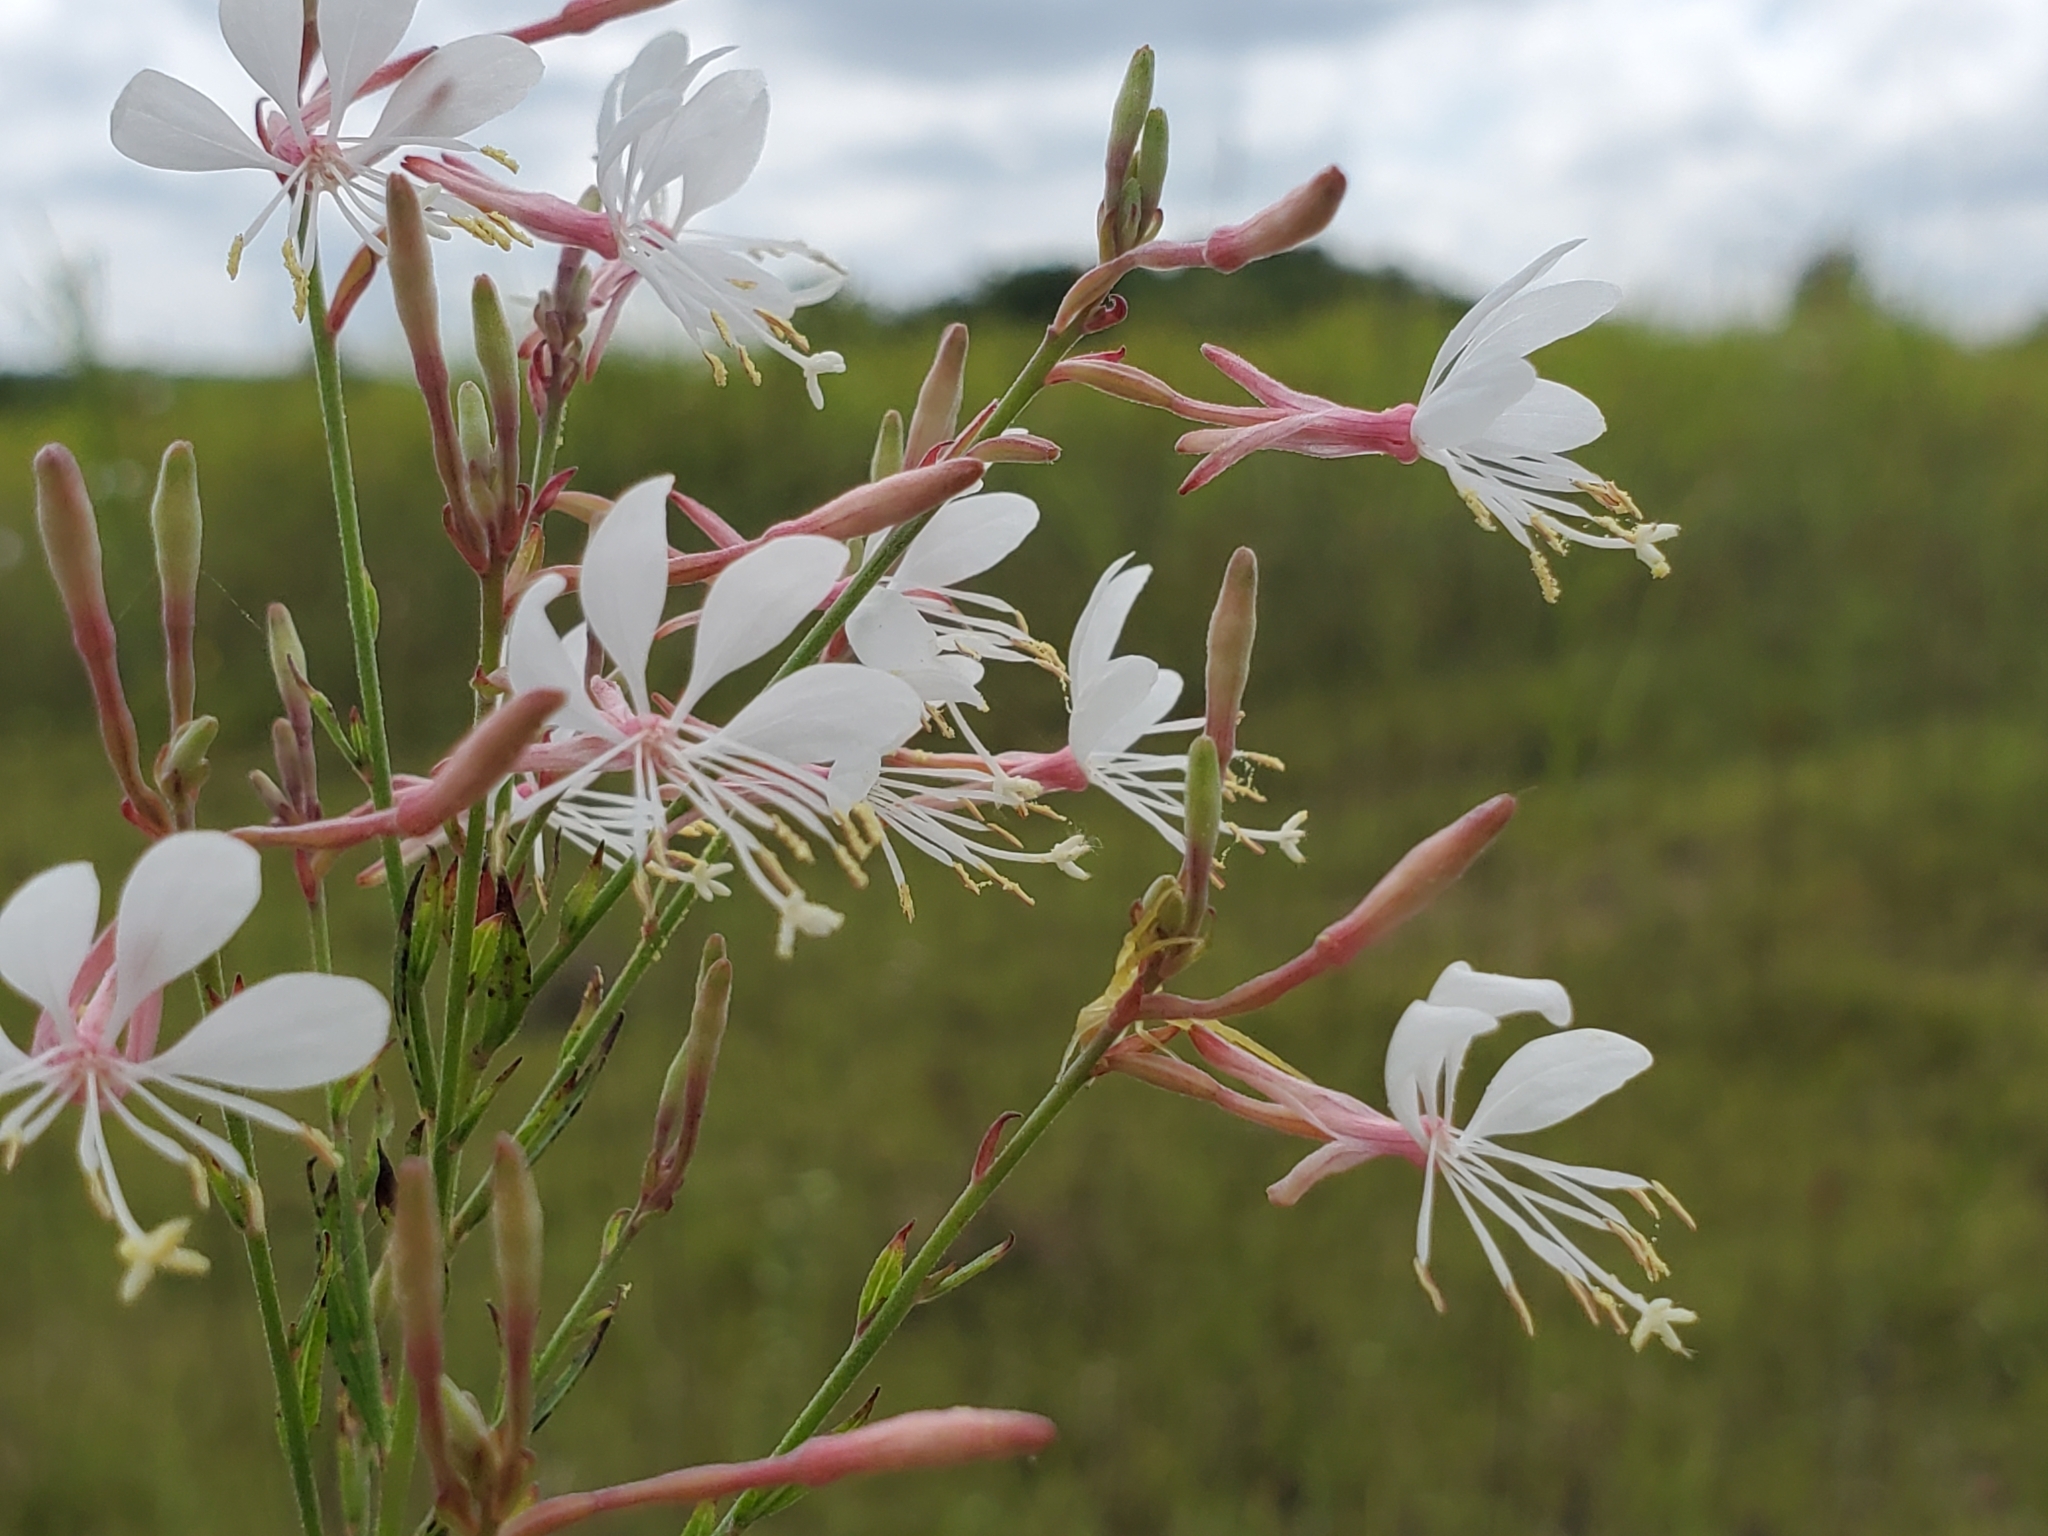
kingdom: Plantae
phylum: Tracheophyta
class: Magnoliopsida
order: Myrtales
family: Onagraceae
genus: Oenothera
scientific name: Oenothera filiformis
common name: Longflower beeblossom
